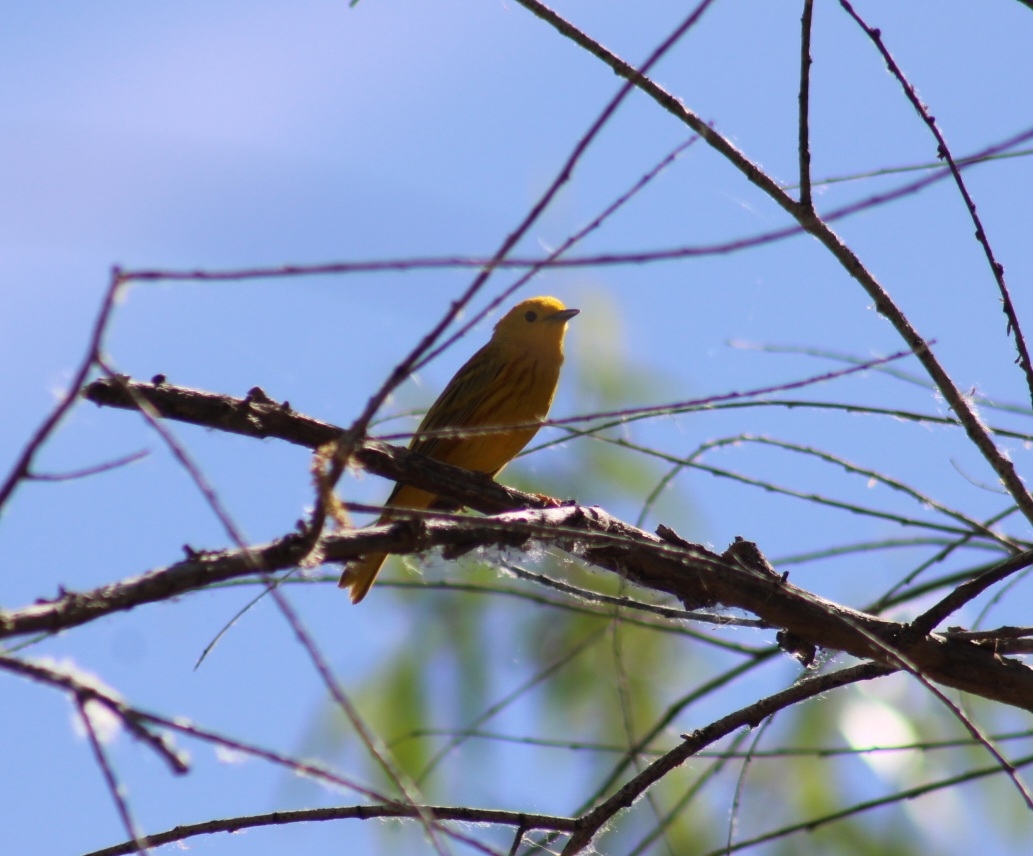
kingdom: Animalia
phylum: Chordata
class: Aves
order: Passeriformes
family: Parulidae
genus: Setophaga
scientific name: Setophaga petechia
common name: Yellow warbler
